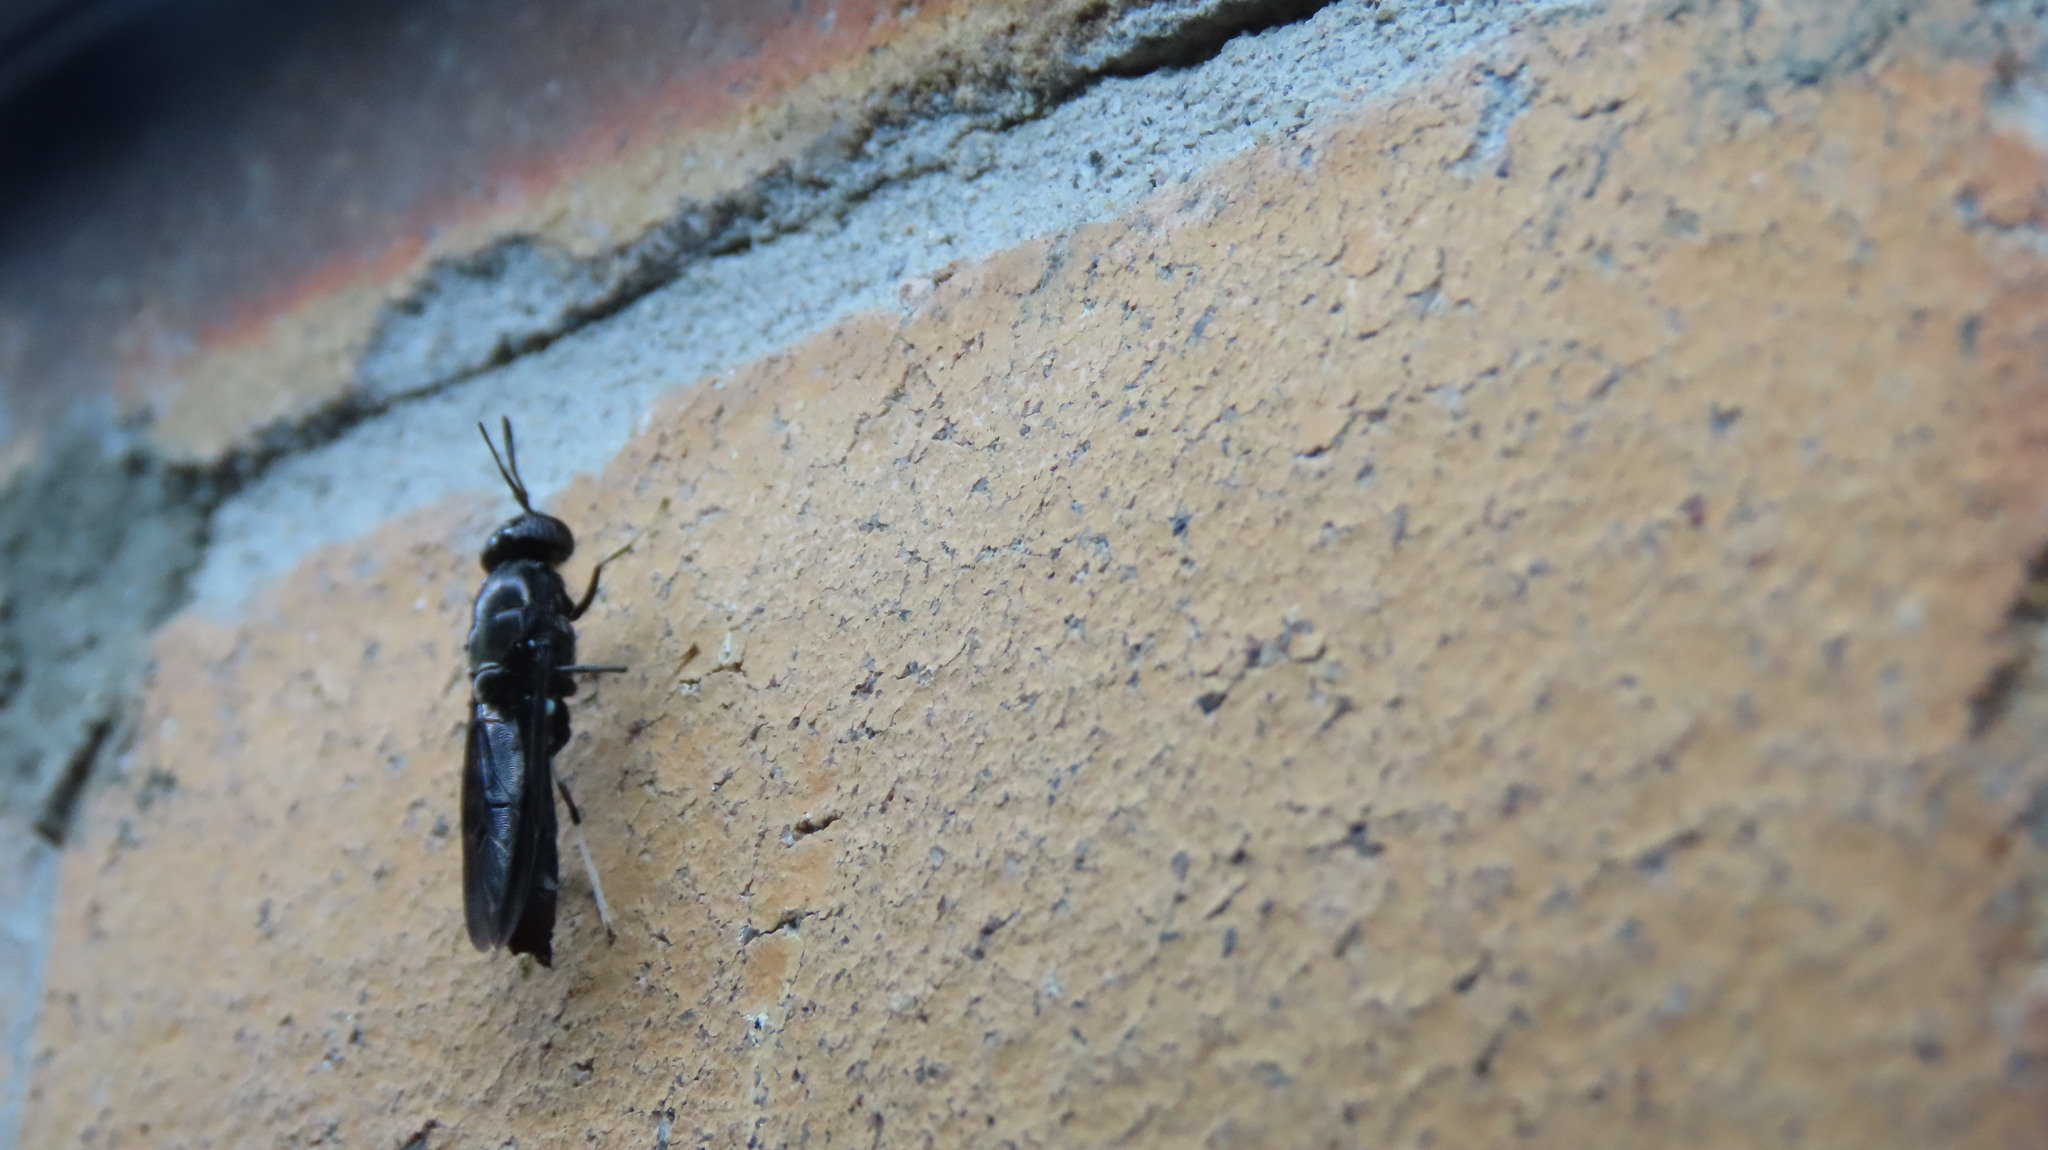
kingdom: Animalia
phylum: Arthropoda
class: Insecta
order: Diptera
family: Stratiomyidae
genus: Hermetia
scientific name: Hermetia illucens
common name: Black soldier fly
